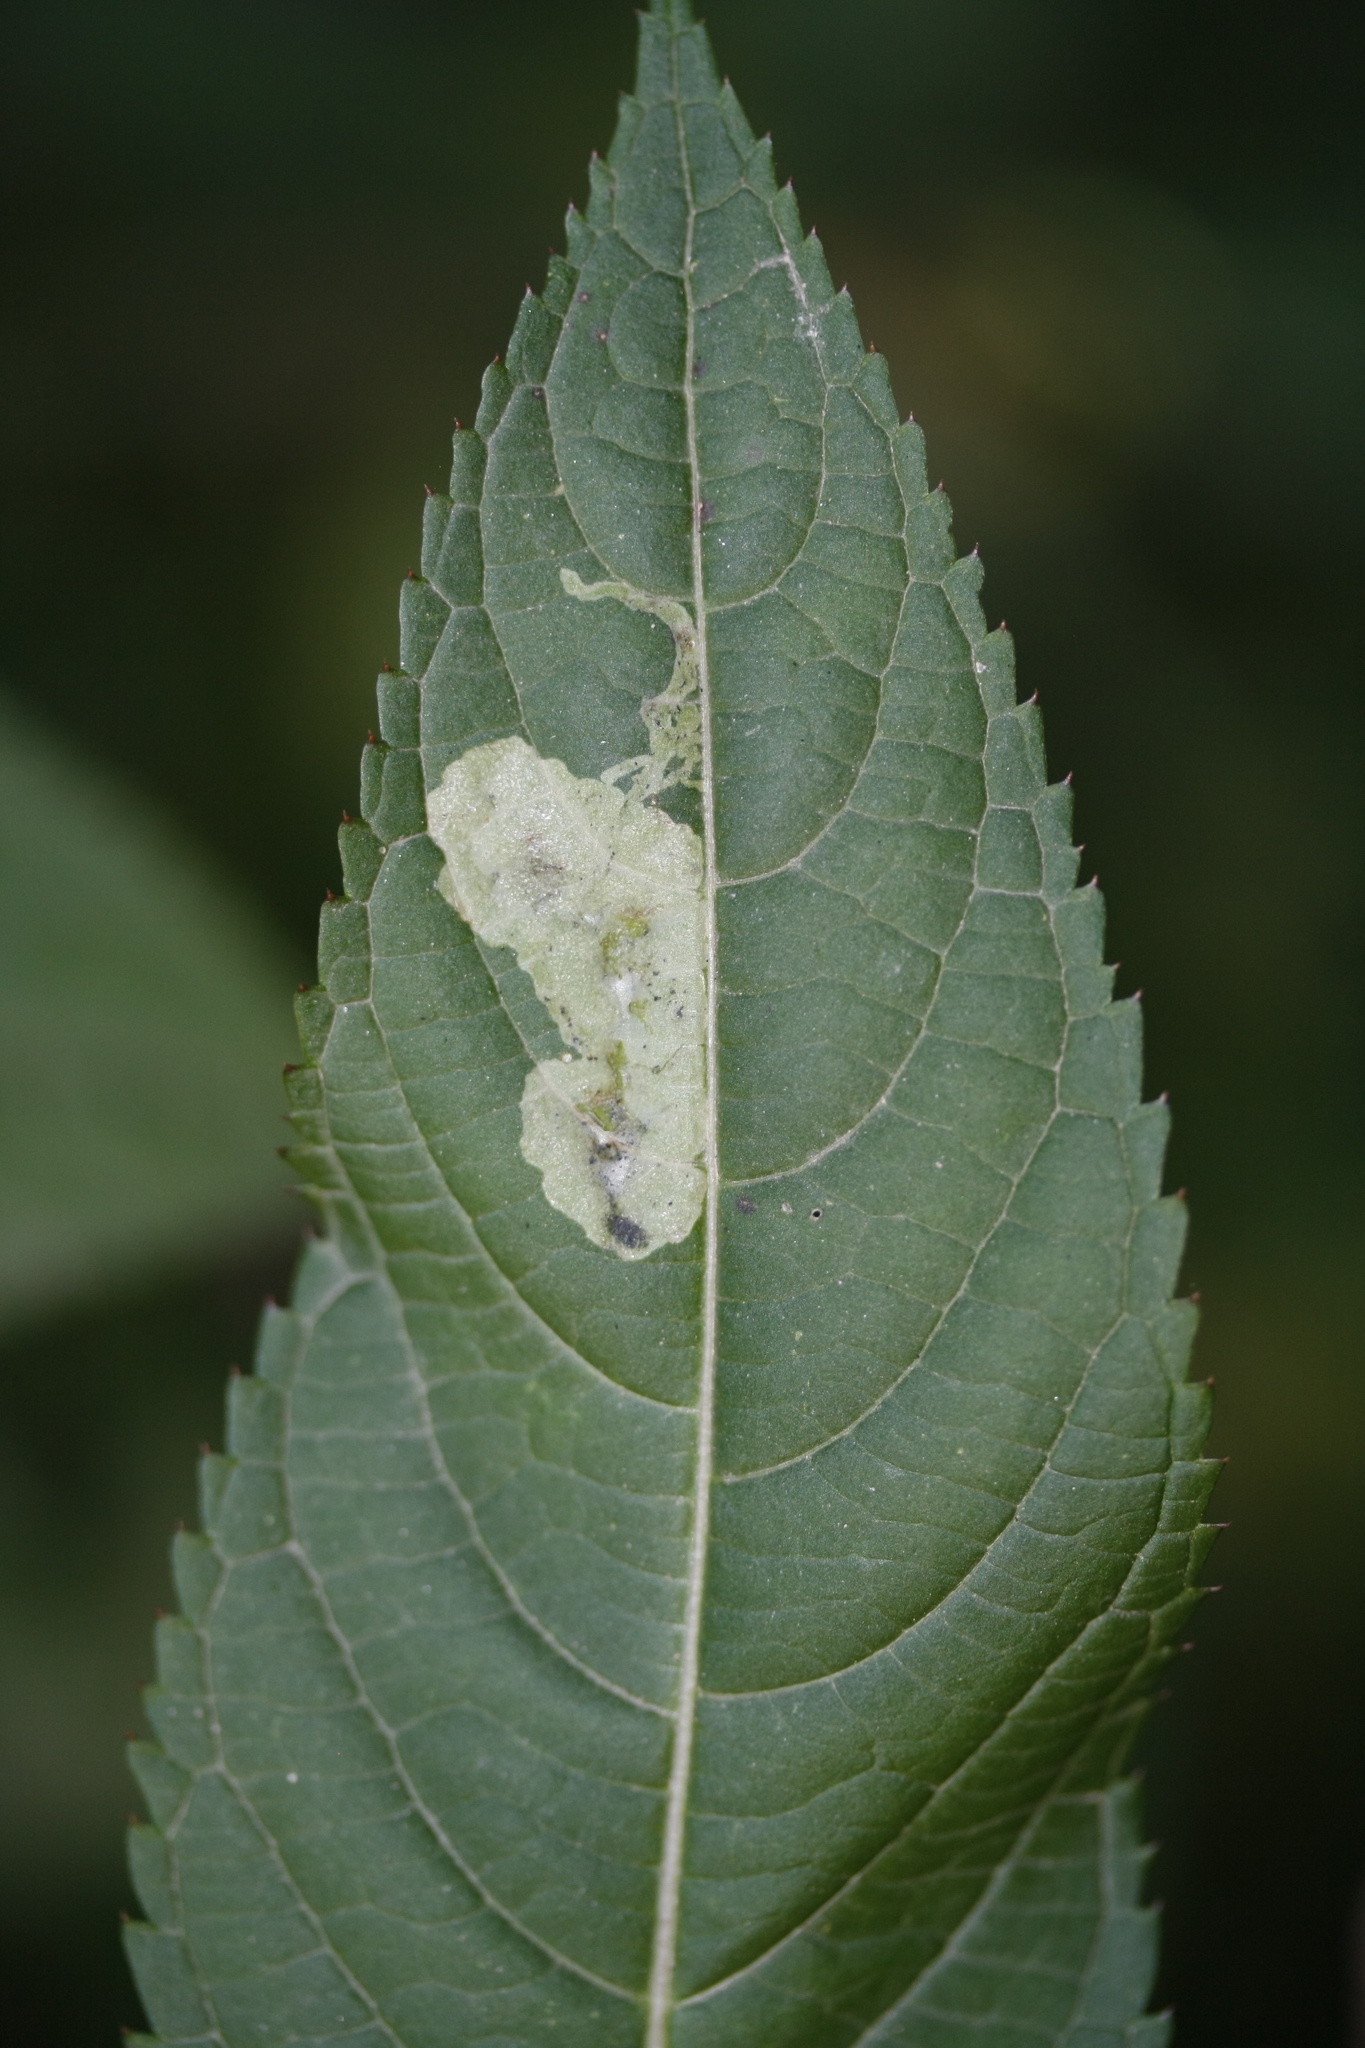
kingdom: Animalia
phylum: Arthropoda
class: Insecta
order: Diptera
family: Agromyzidae
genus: Phytoliriomyza
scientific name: Phytoliriomyza melampyga
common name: Jewelweed leaf-miner fly
